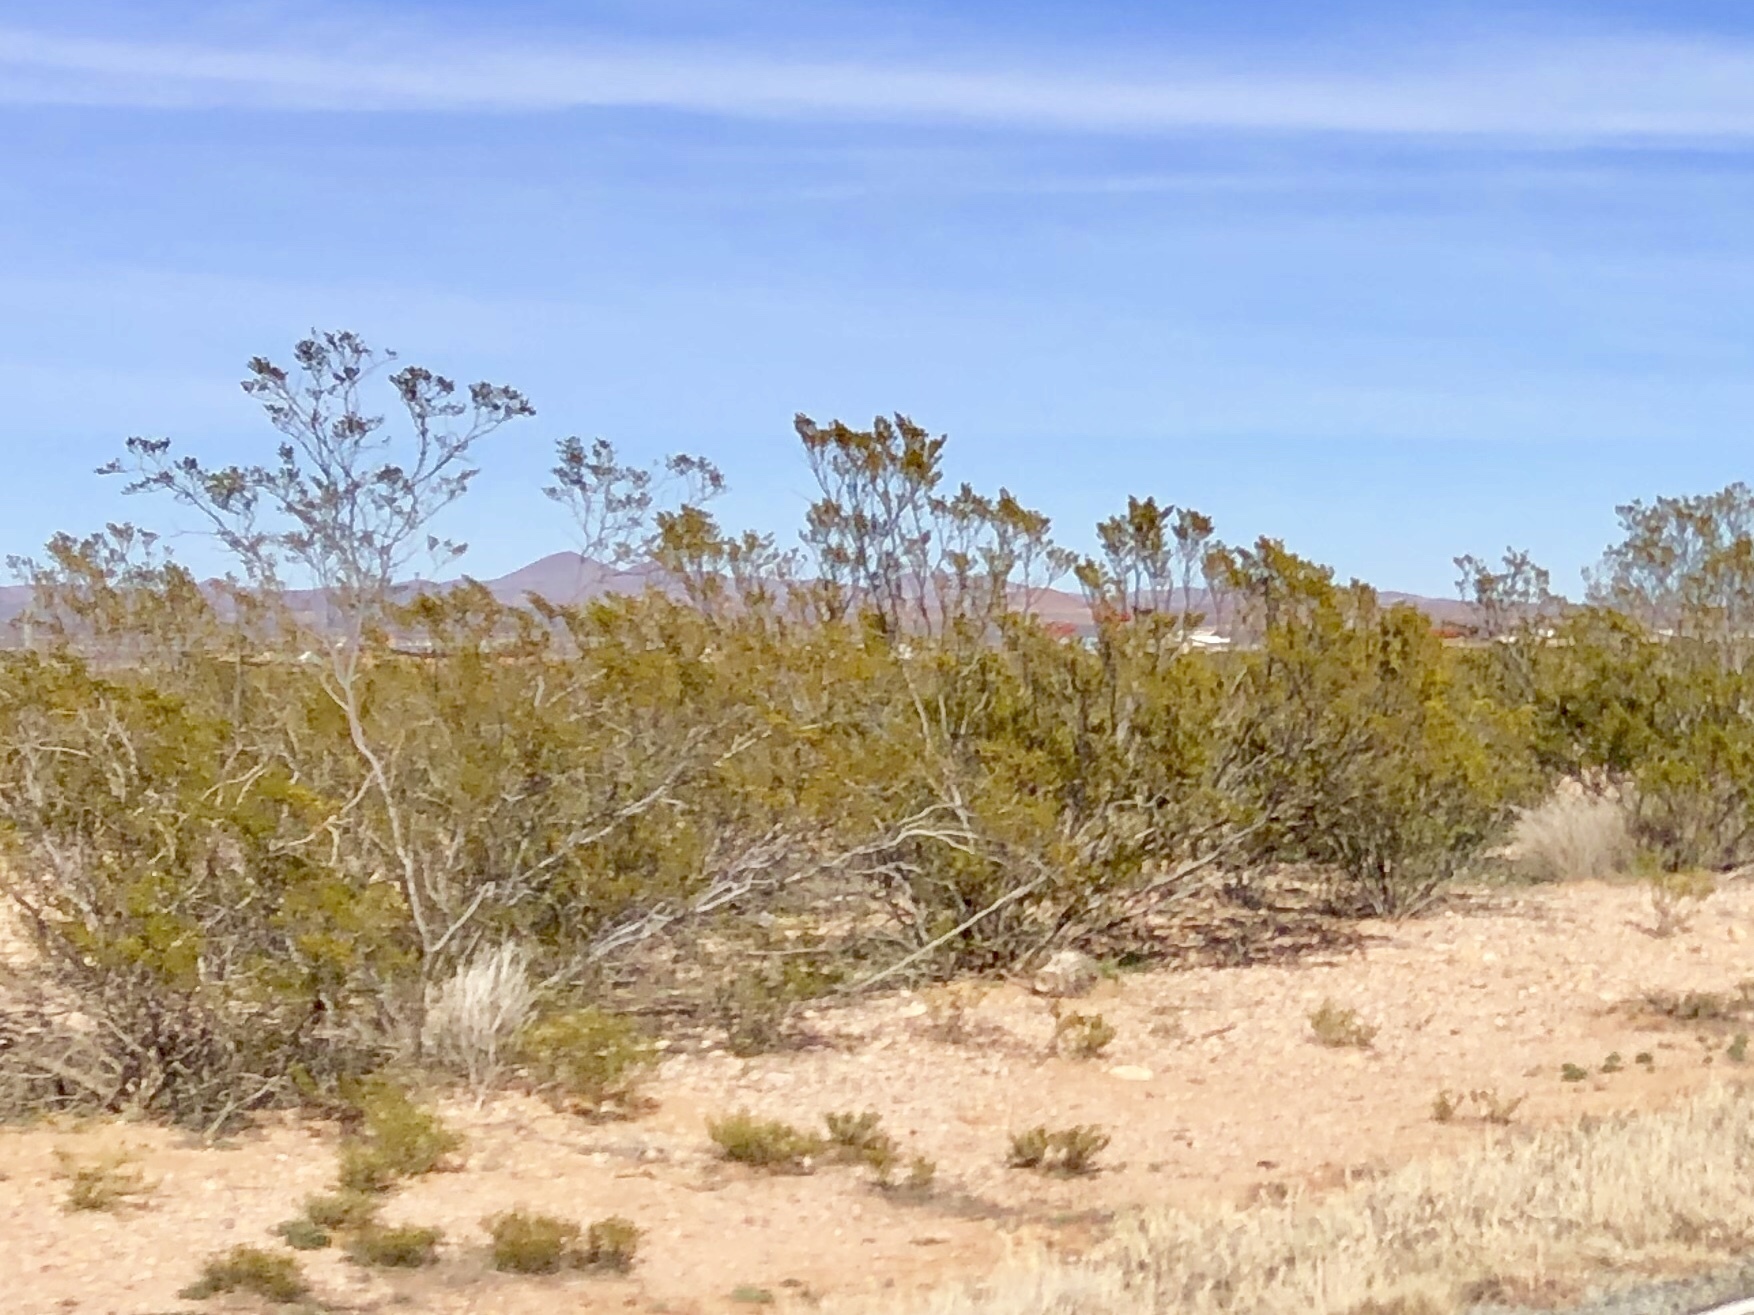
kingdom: Plantae
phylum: Tracheophyta
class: Magnoliopsida
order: Zygophyllales
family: Zygophyllaceae
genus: Larrea
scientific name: Larrea tridentata
